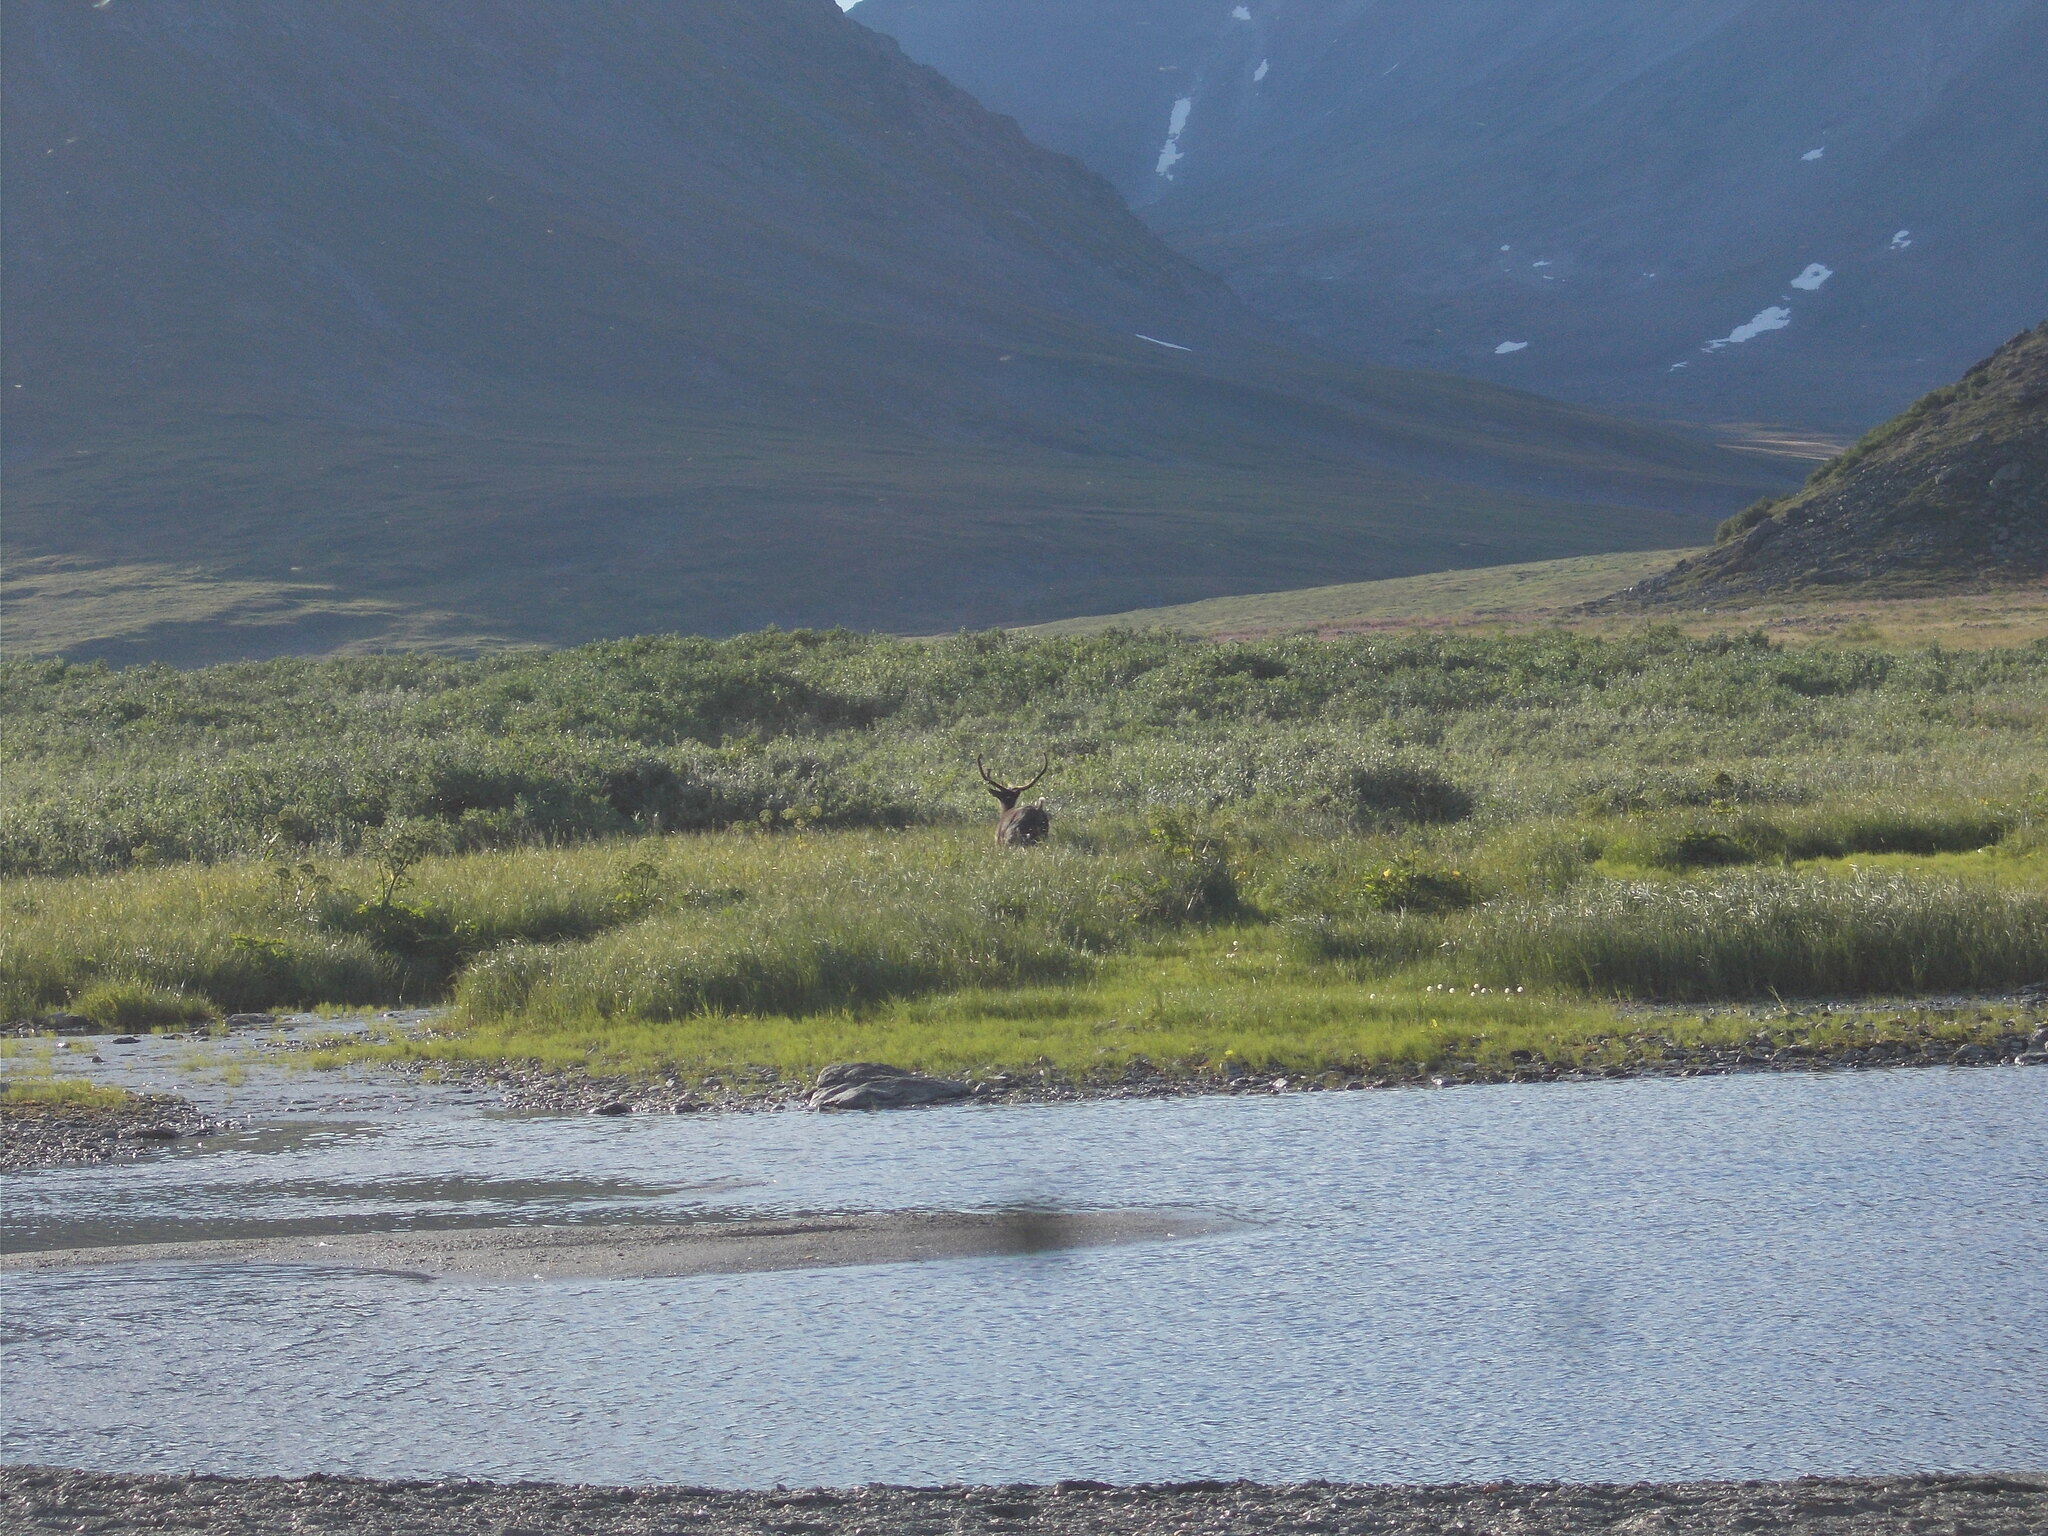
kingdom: Animalia
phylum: Chordata
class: Mammalia
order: Artiodactyla
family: Cervidae
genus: Rangifer
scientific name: Rangifer tarandus
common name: Reindeer
